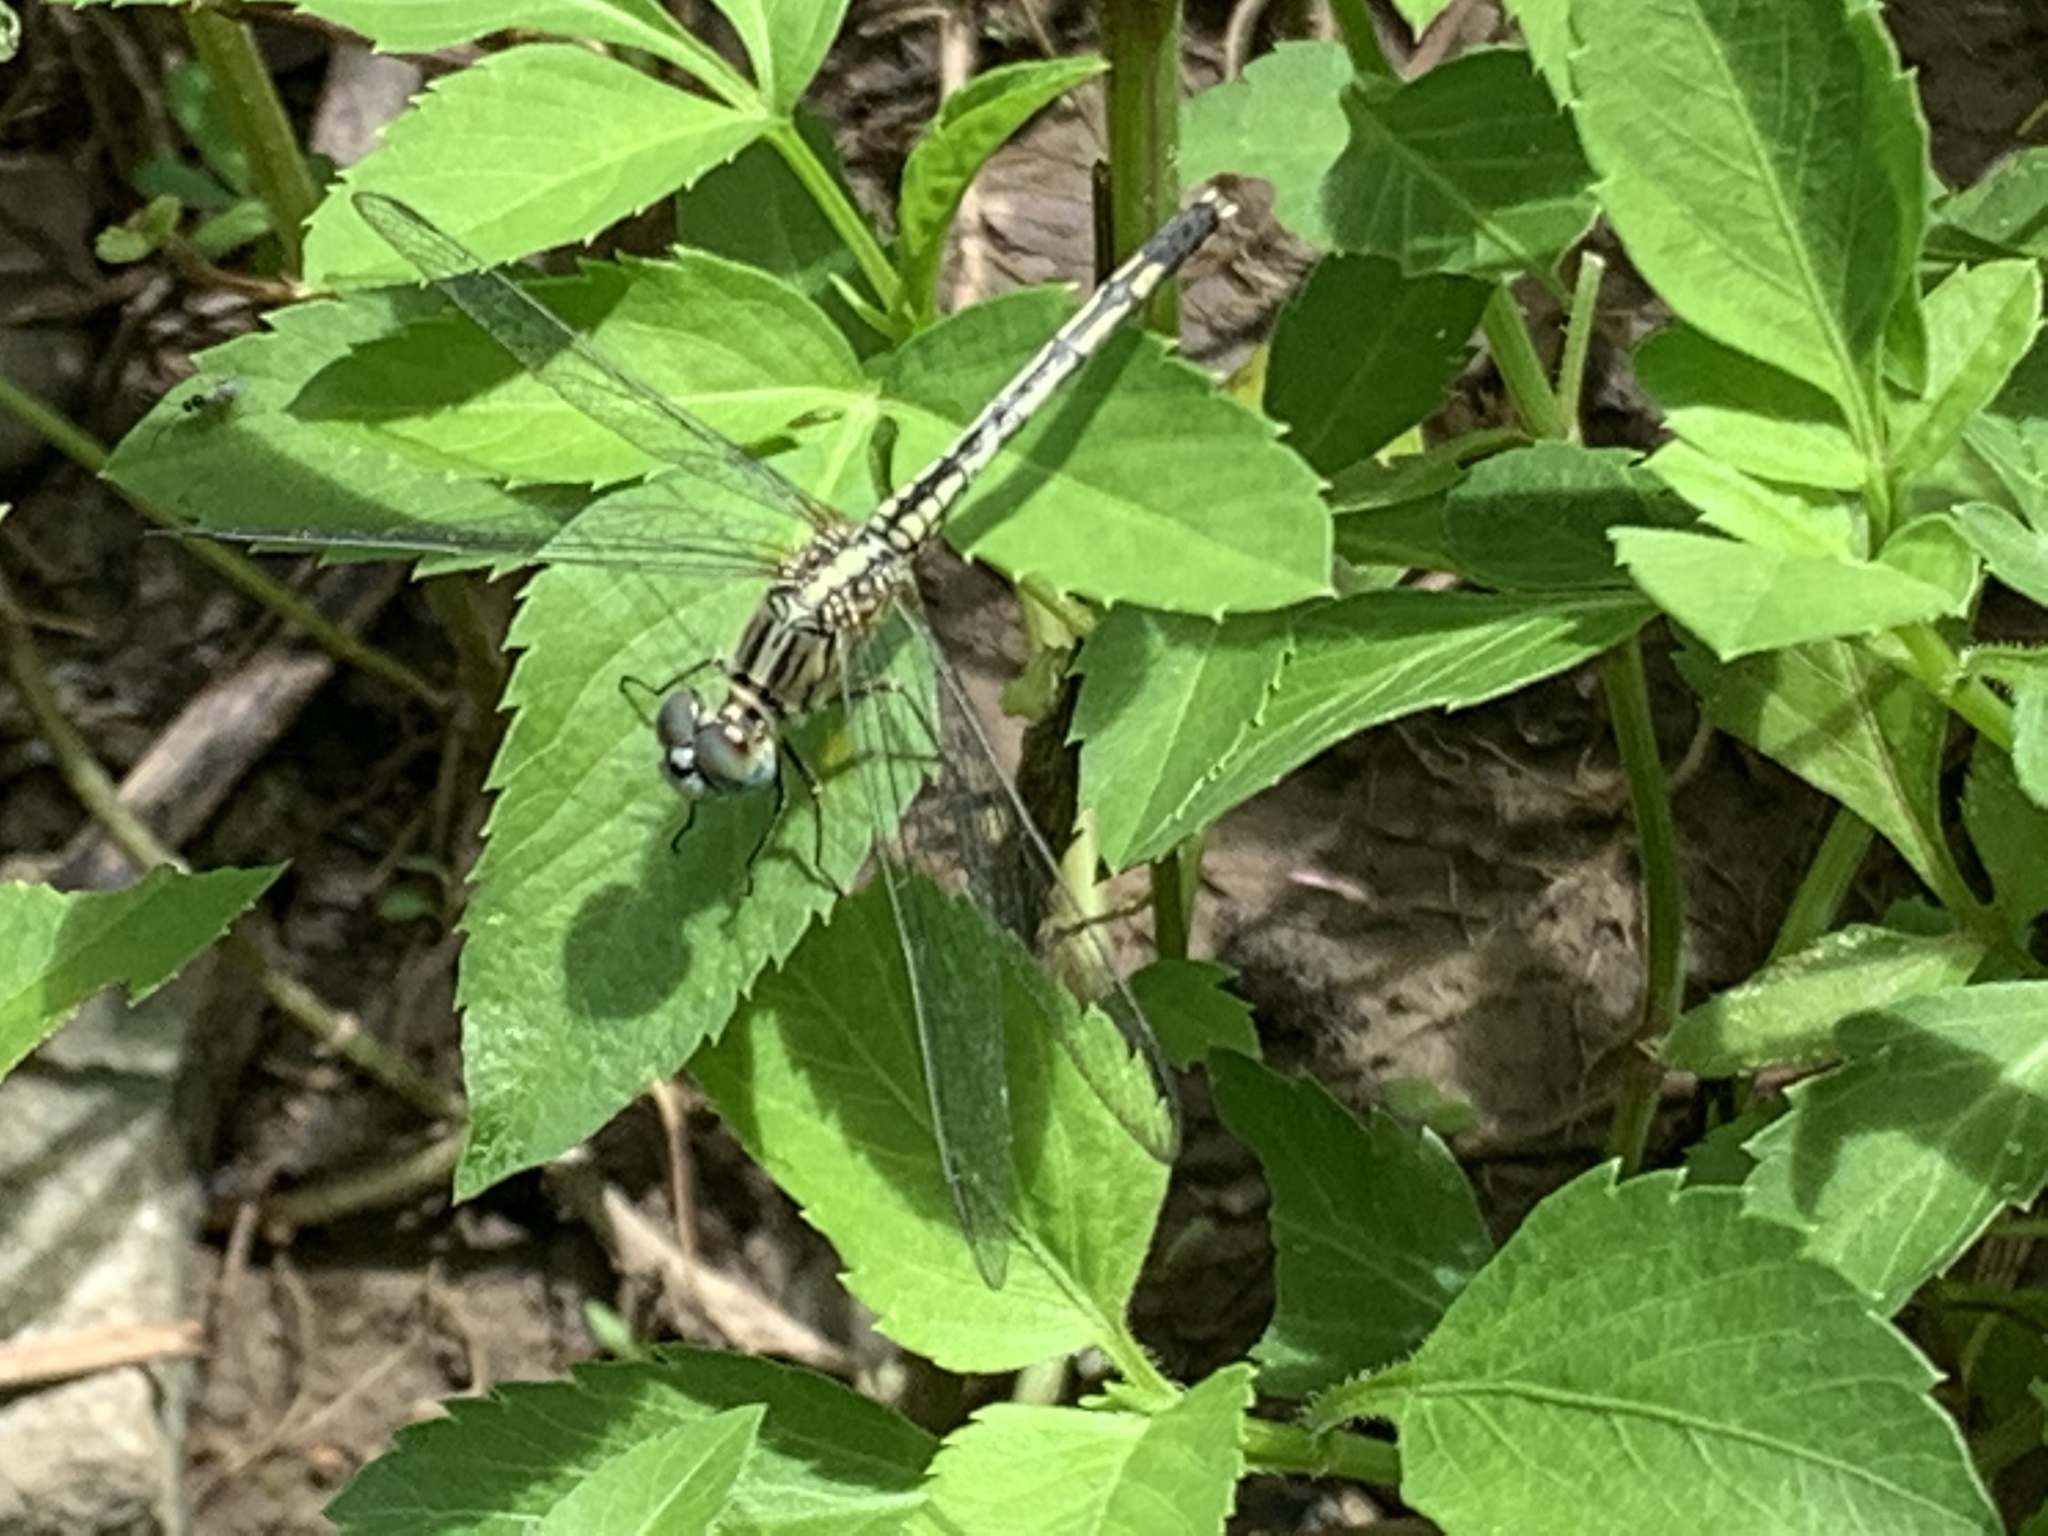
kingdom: Animalia
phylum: Arthropoda
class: Insecta
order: Odonata
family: Libellulidae
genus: Diplacodes
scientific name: Diplacodes trivialis
